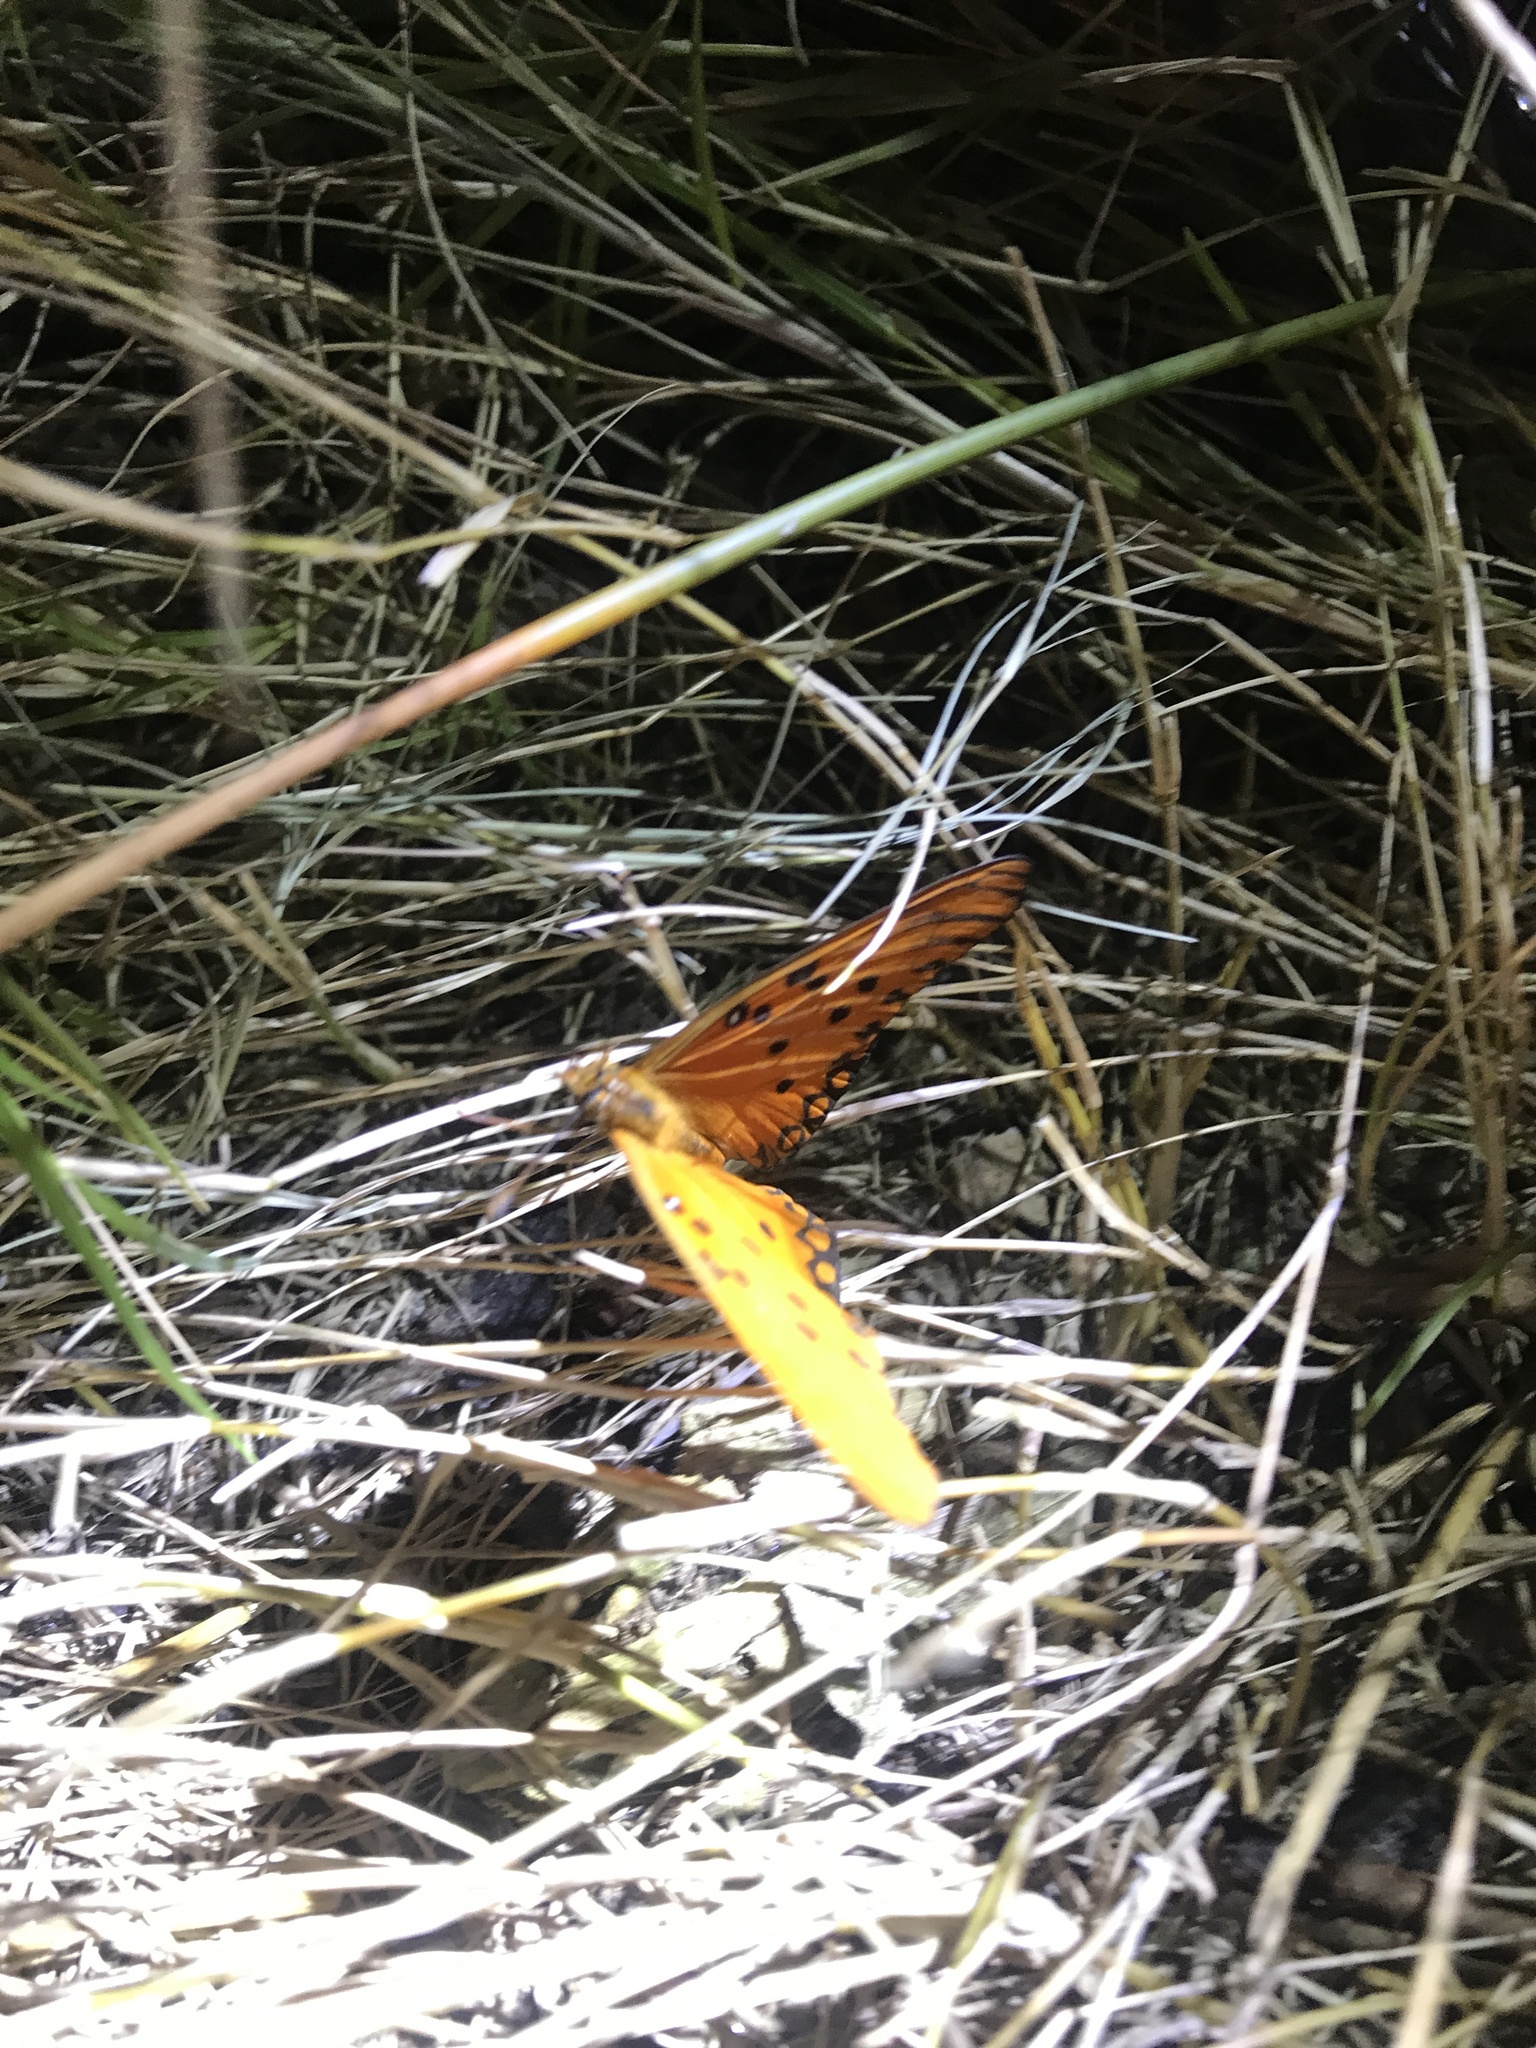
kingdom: Animalia
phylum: Arthropoda
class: Insecta
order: Lepidoptera
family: Nymphalidae
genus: Dione
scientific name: Dione vanillae
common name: Gulf fritillary
